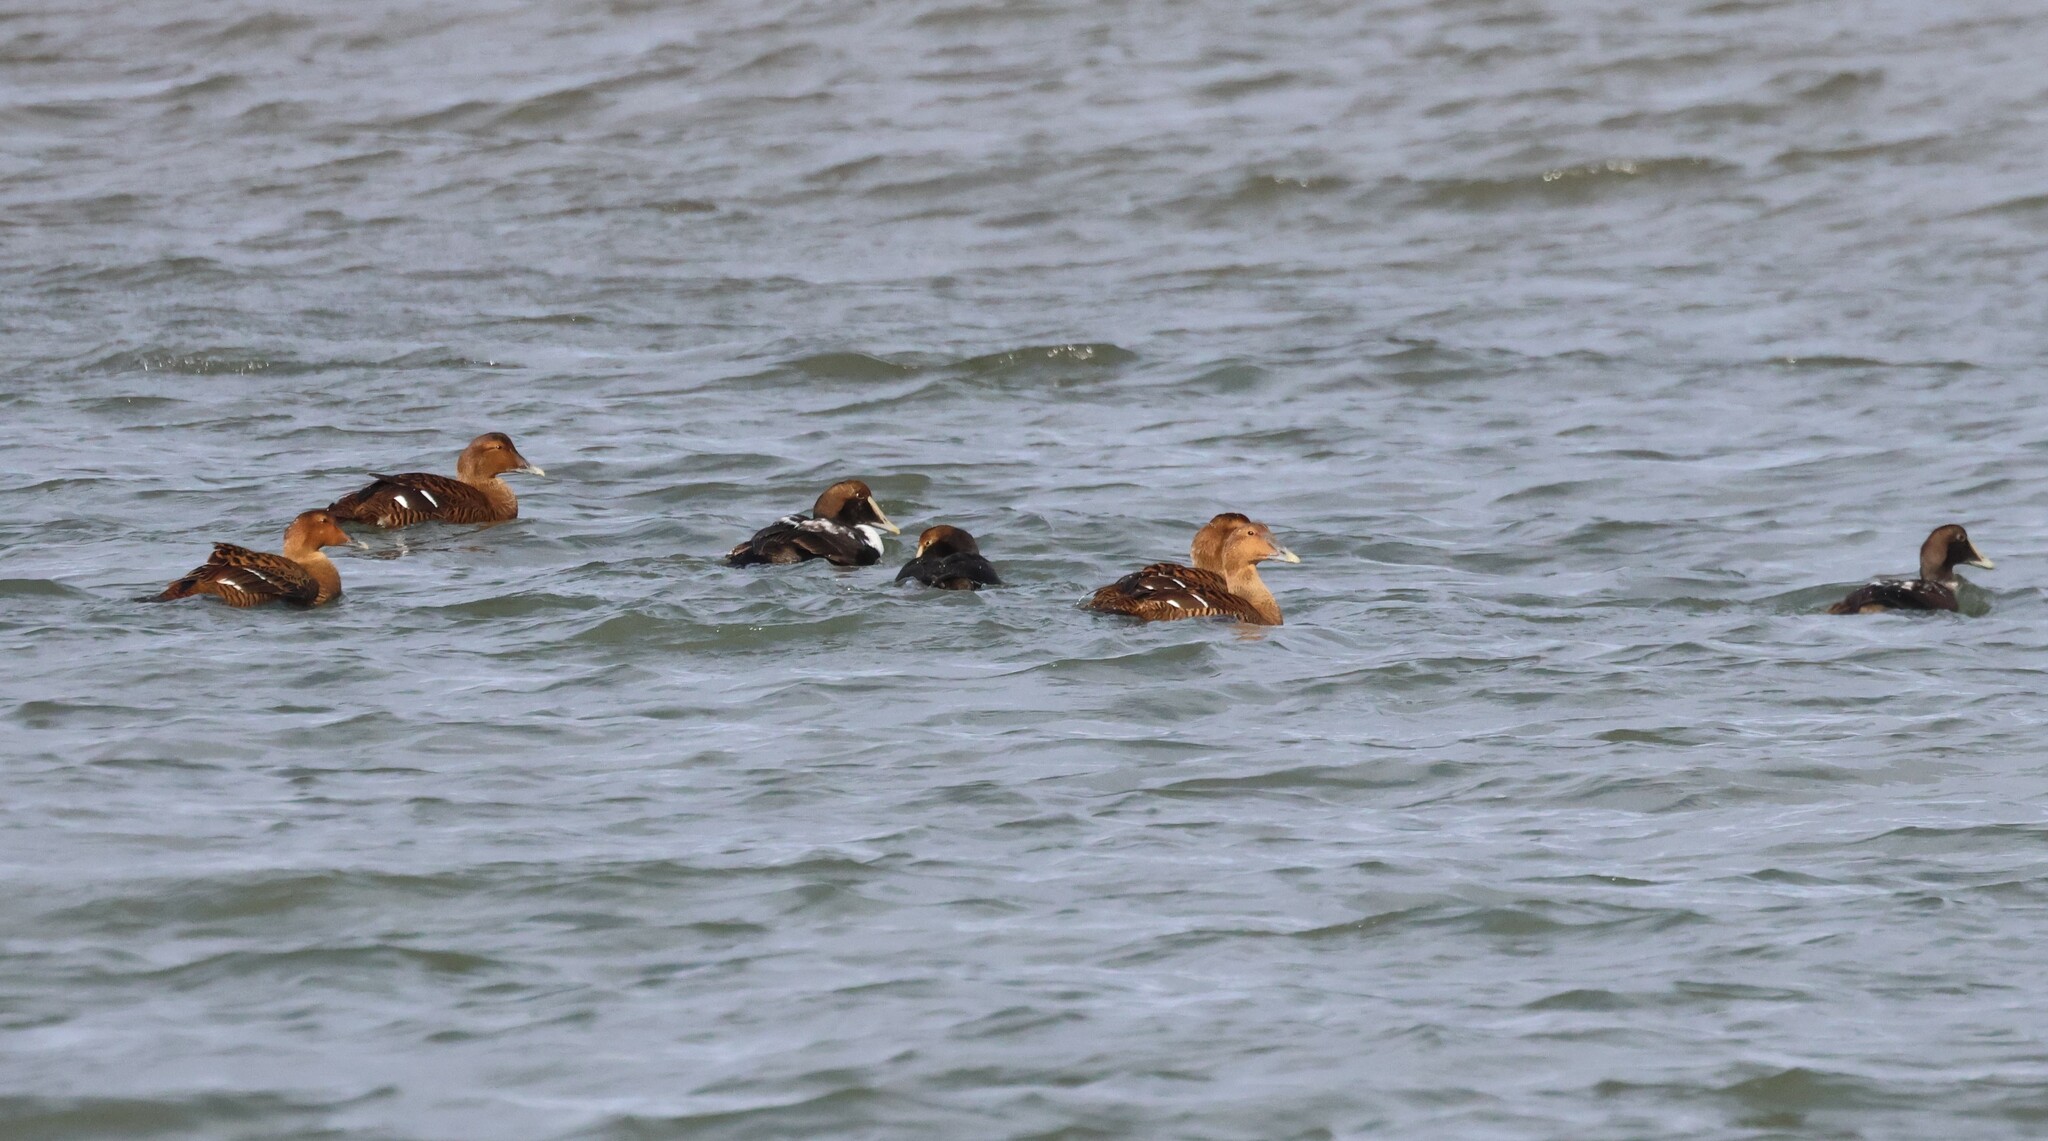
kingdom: Animalia
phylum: Chordata
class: Aves
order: Anseriformes
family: Anatidae
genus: Somateria
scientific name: Somateria mollissima
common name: Common eider
